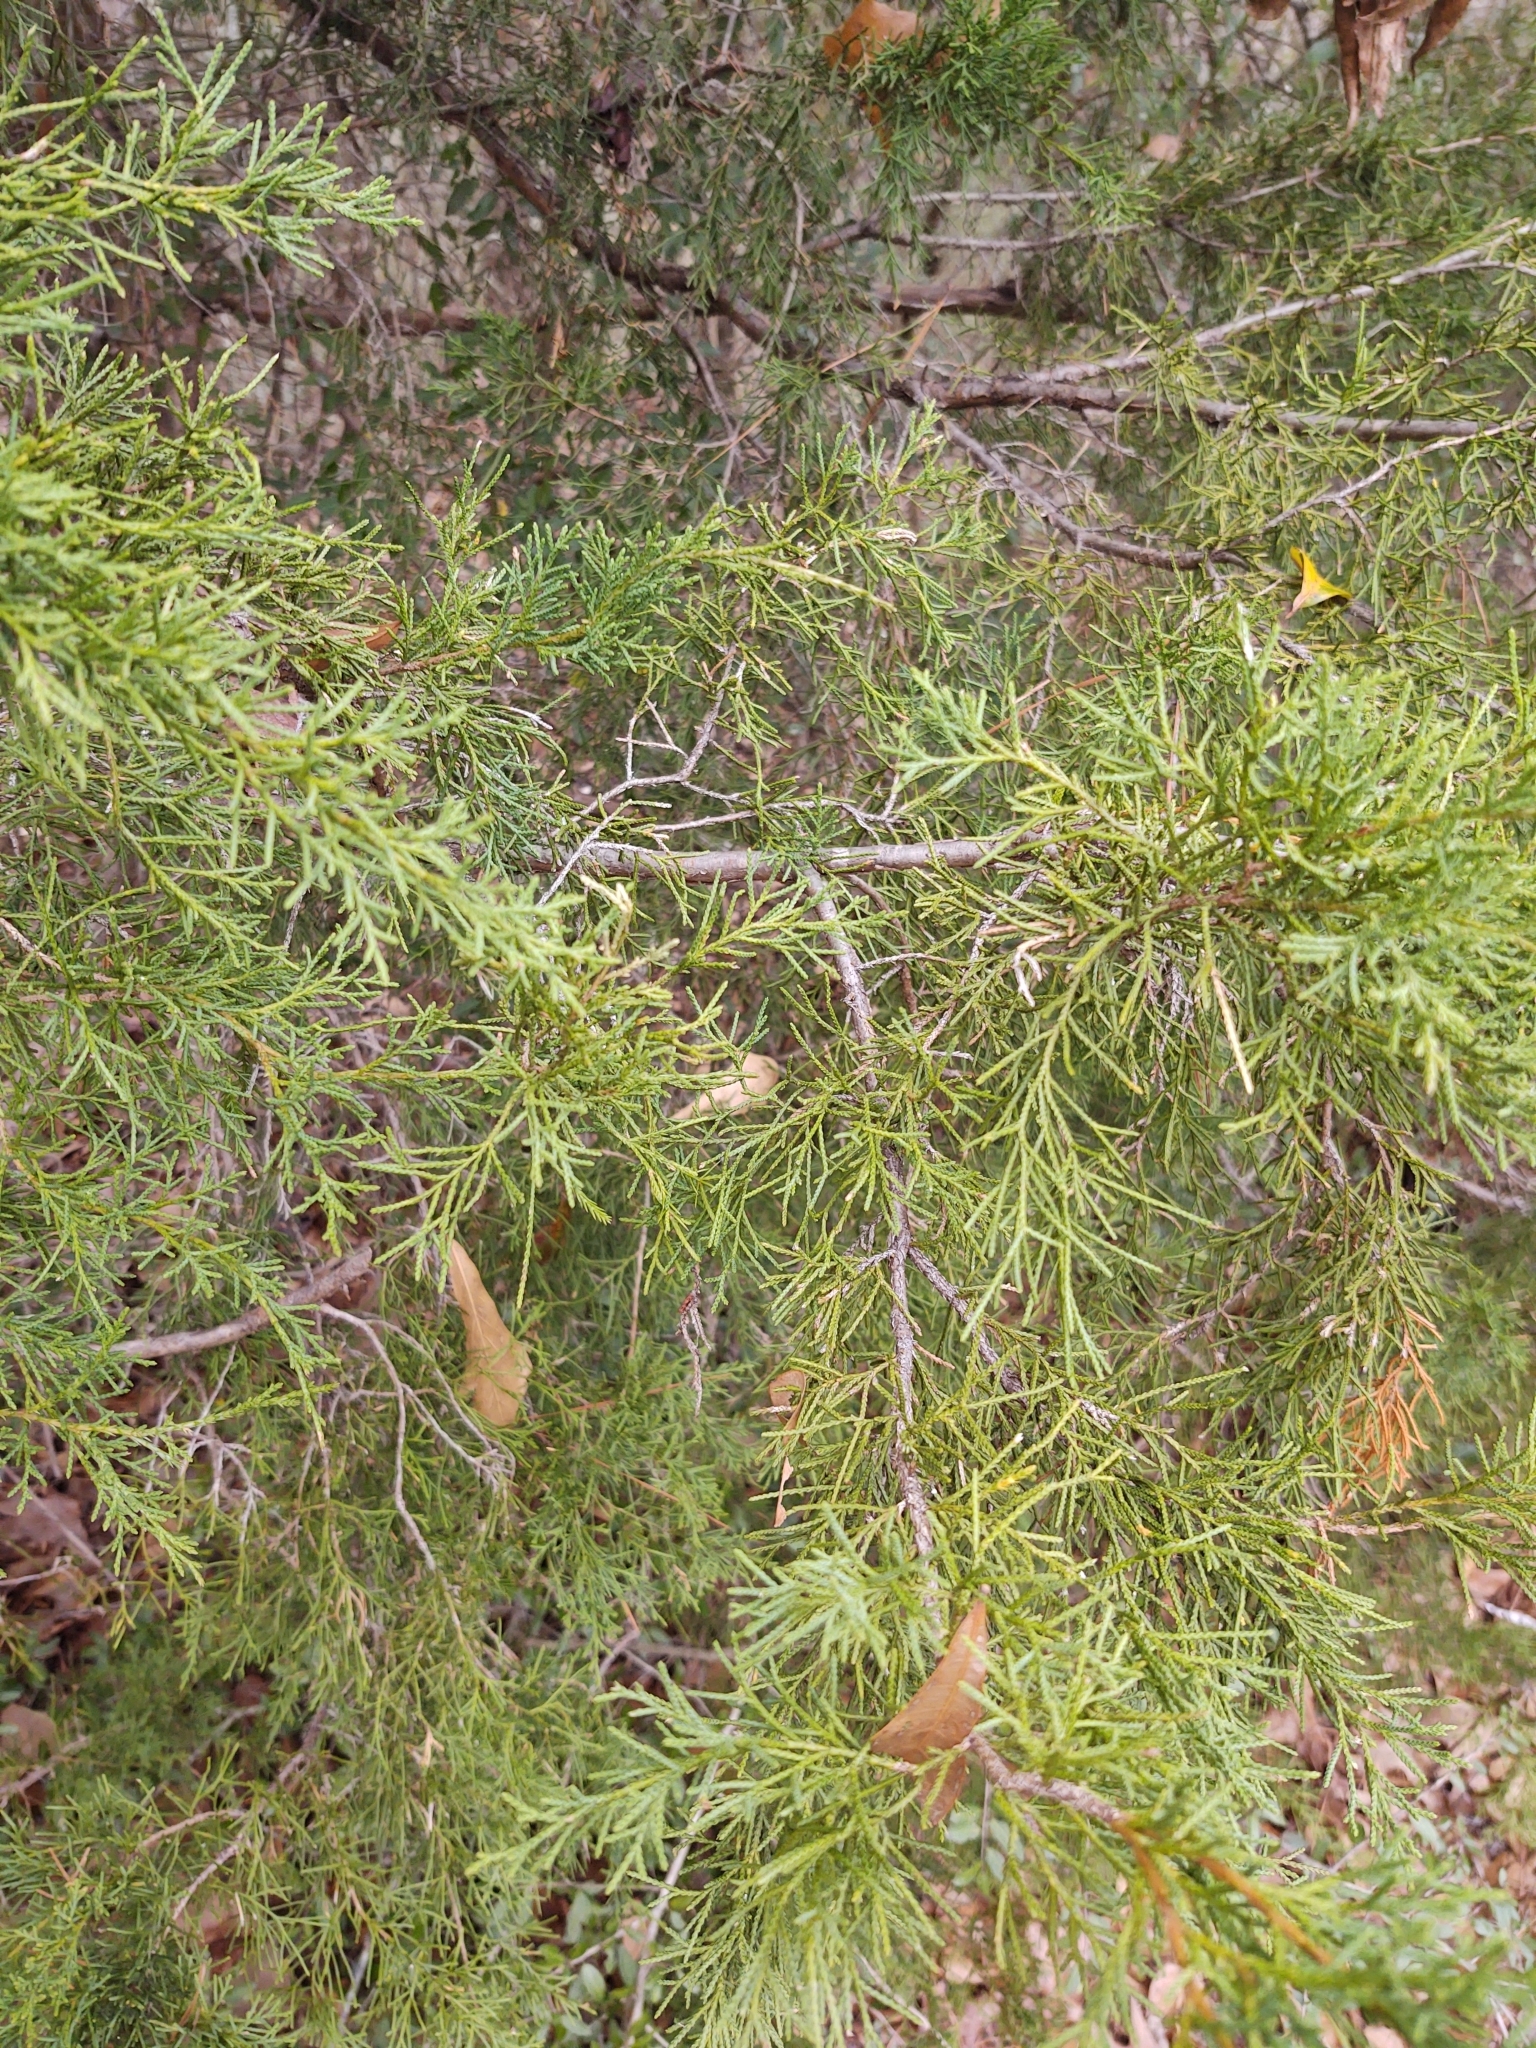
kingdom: Plantae
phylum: Tracheophyta
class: Pinopsida
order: Pinales
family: Cupressaceae
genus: Juniperus
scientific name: Juniperus virginiana
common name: Red juniper
